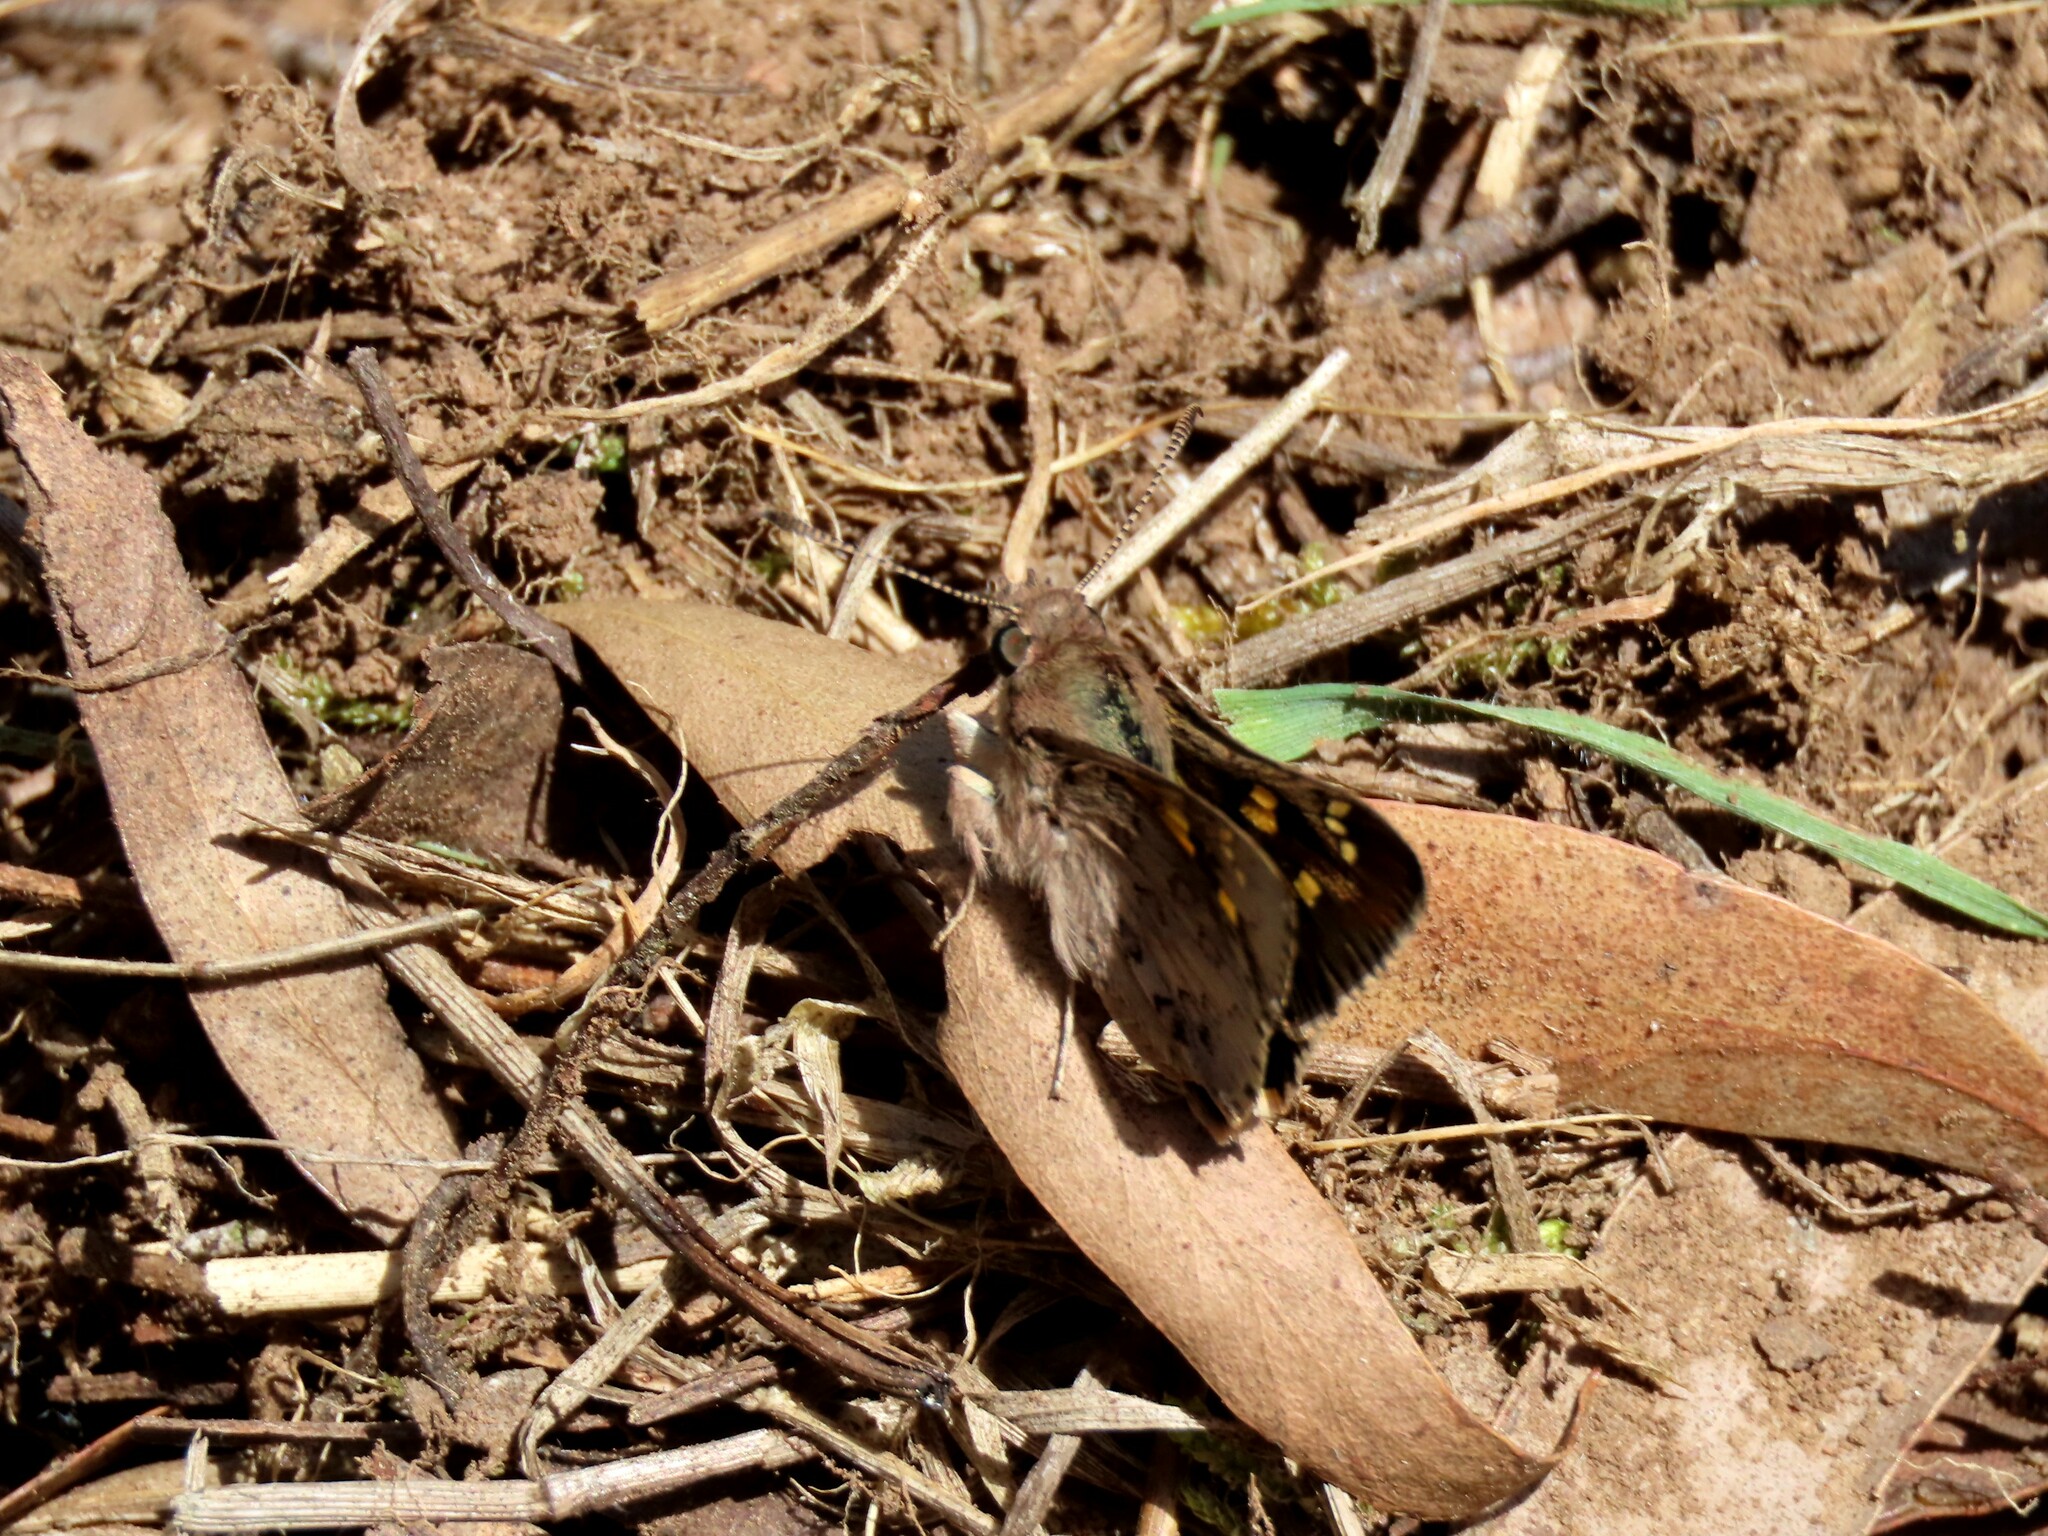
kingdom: Animalia
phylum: Arthropoda
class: Insecta
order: Lepidoptera
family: Hesperiidae
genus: Trapezites
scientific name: Trapezites phigalioides
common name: Montane ochre
